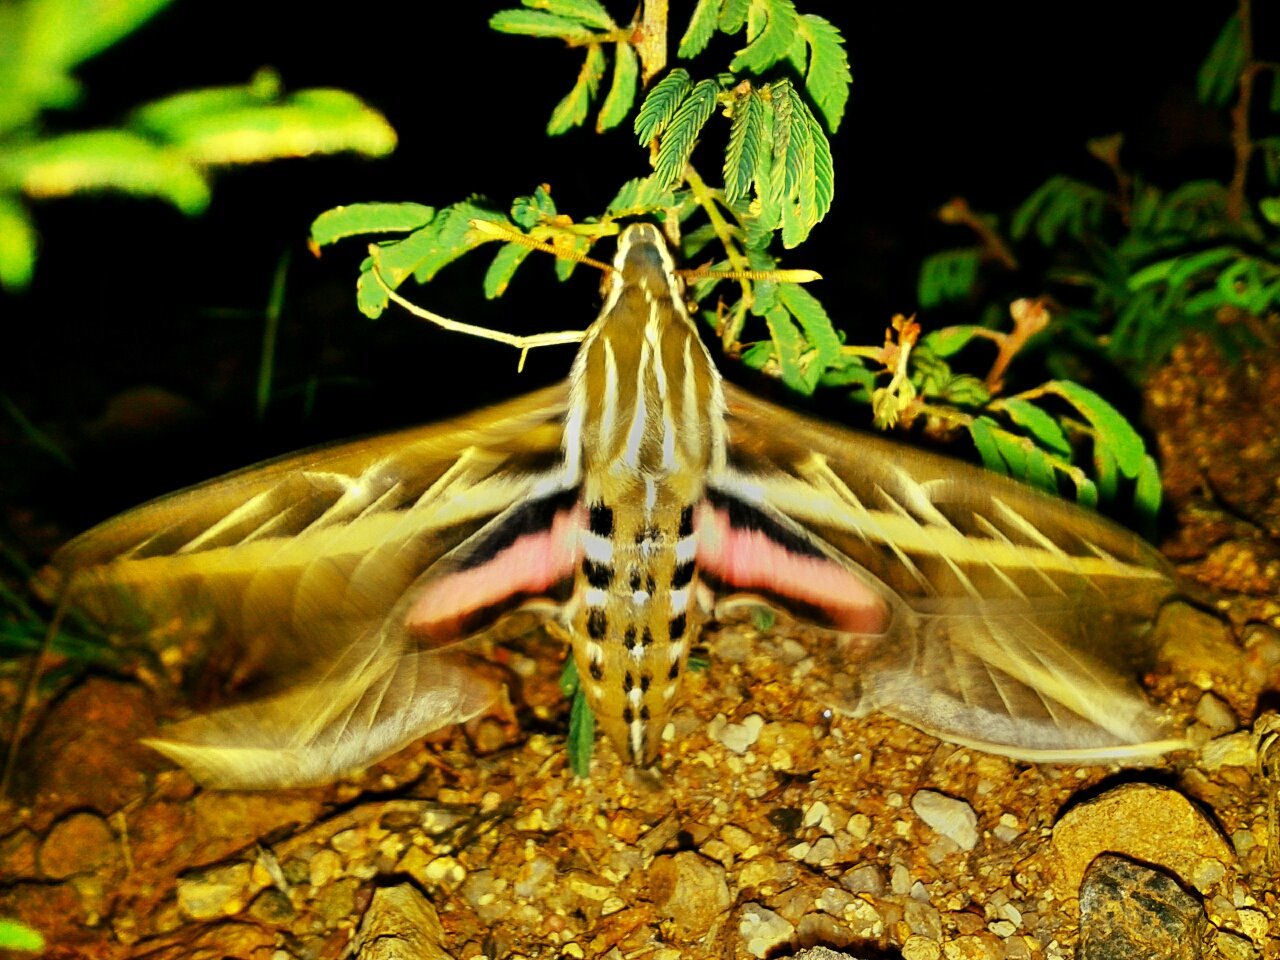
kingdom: Animalia
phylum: Arthropoda
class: Insecta
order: Lepidoptera
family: Sphingidae
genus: Hyles
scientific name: Hyles lineata
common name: White-lined sphinx
